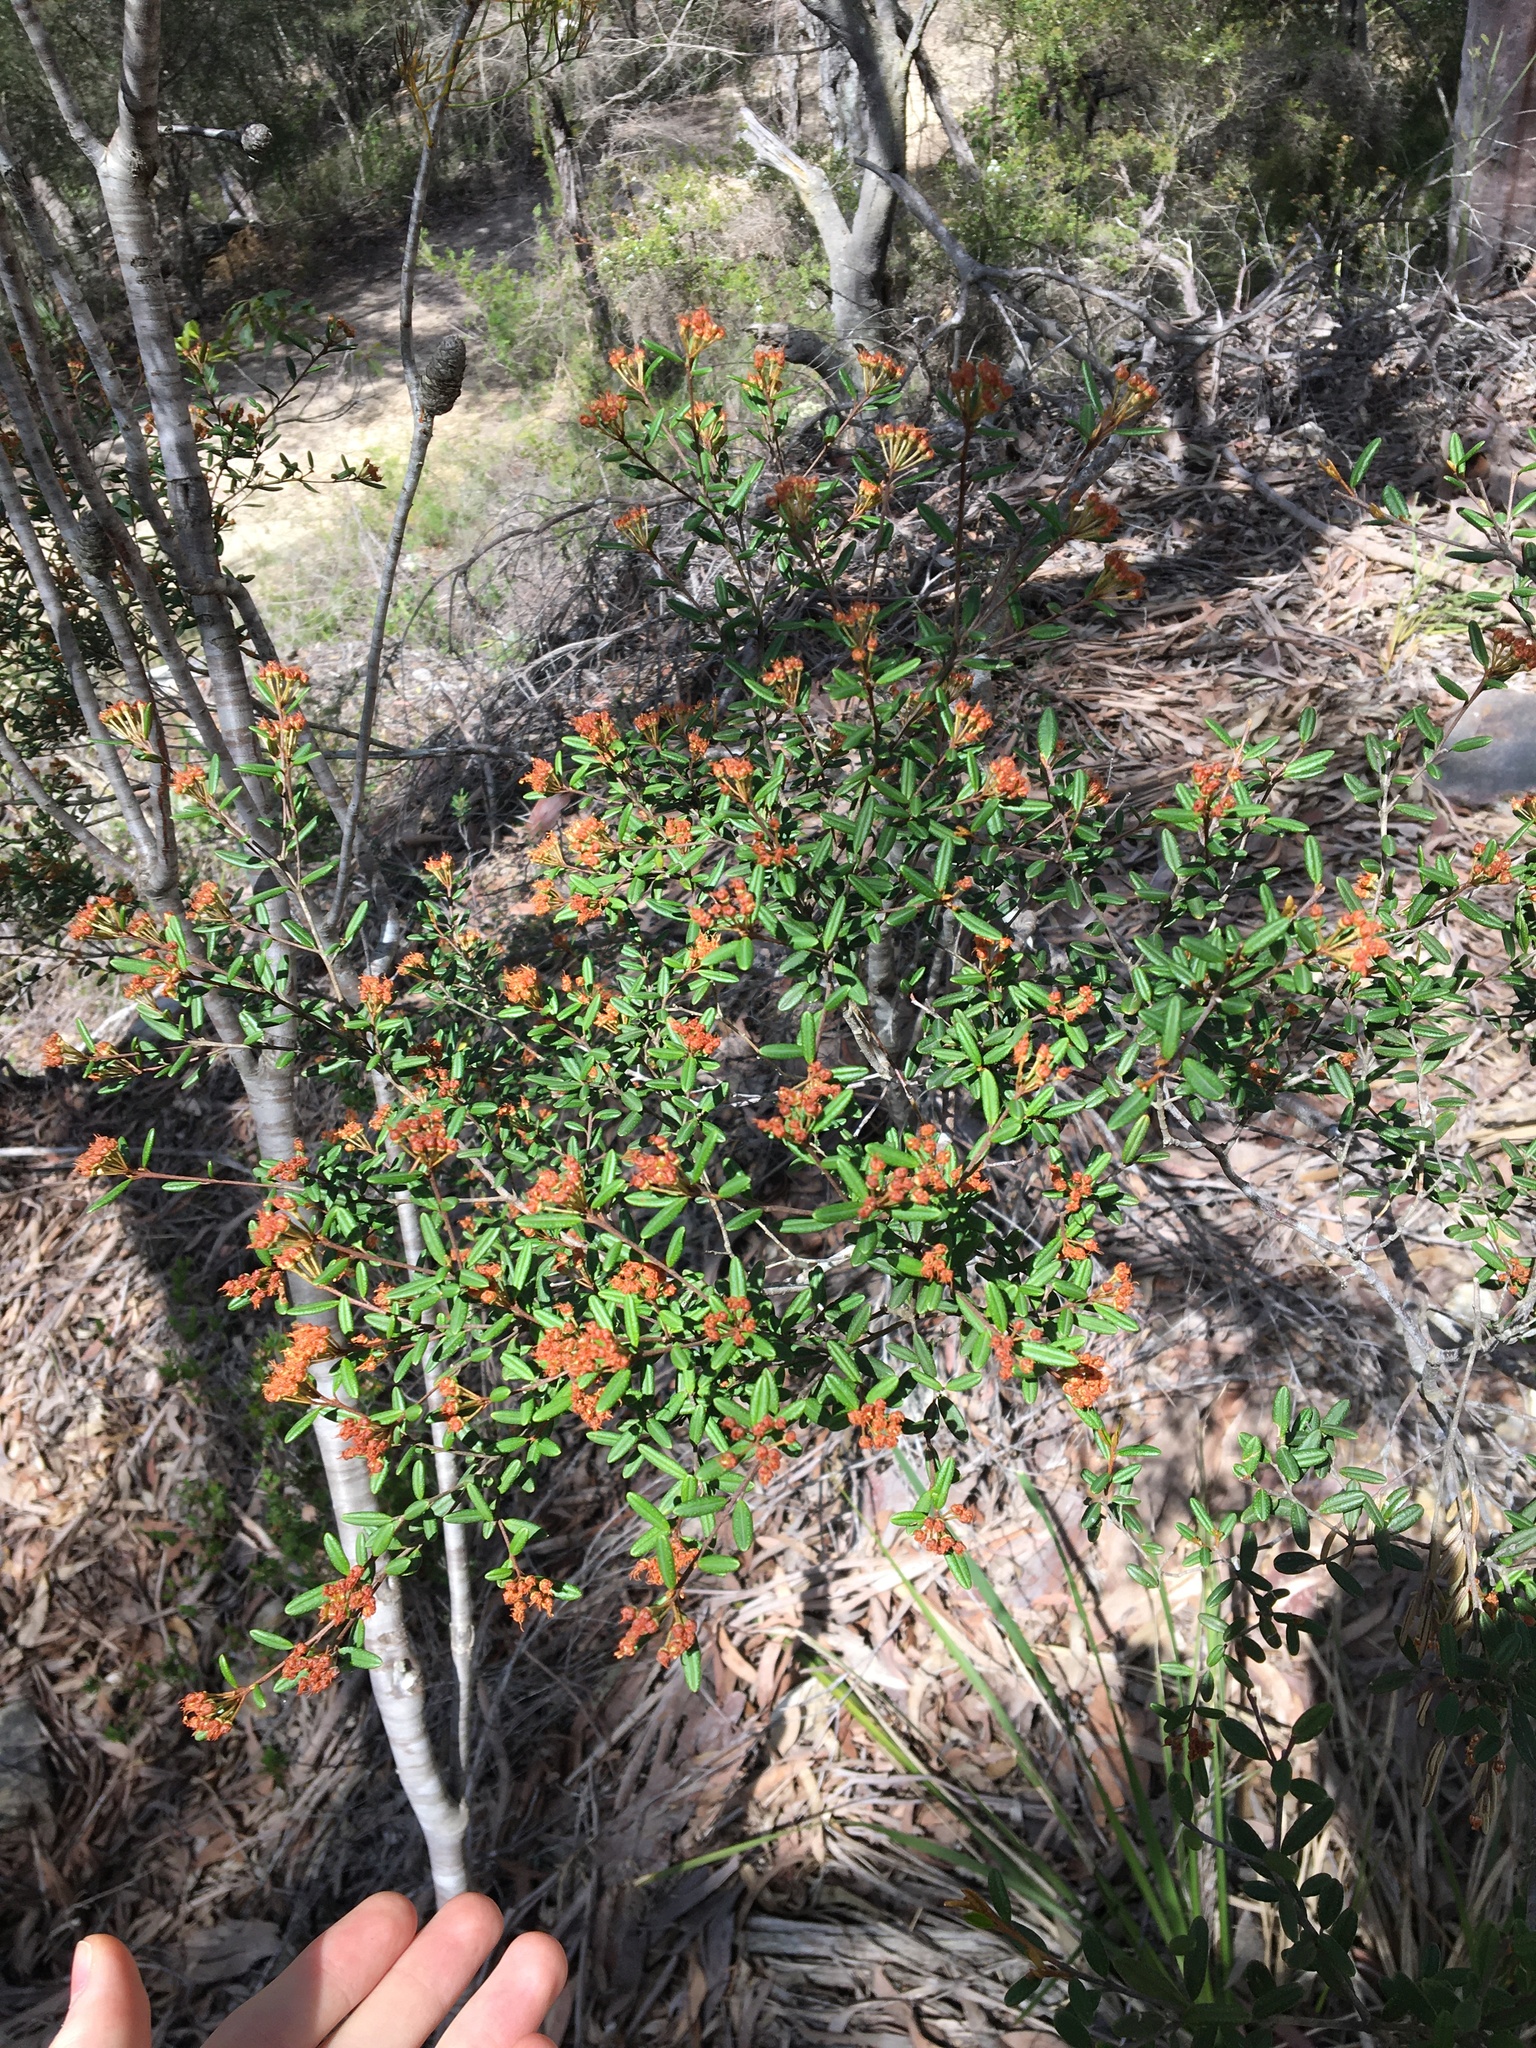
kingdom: Plantae
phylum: Tracheophyta
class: Magnoliopsida
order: Sapindales
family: Rutaceae
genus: Phebalium
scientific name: Phebalium squamulosum
